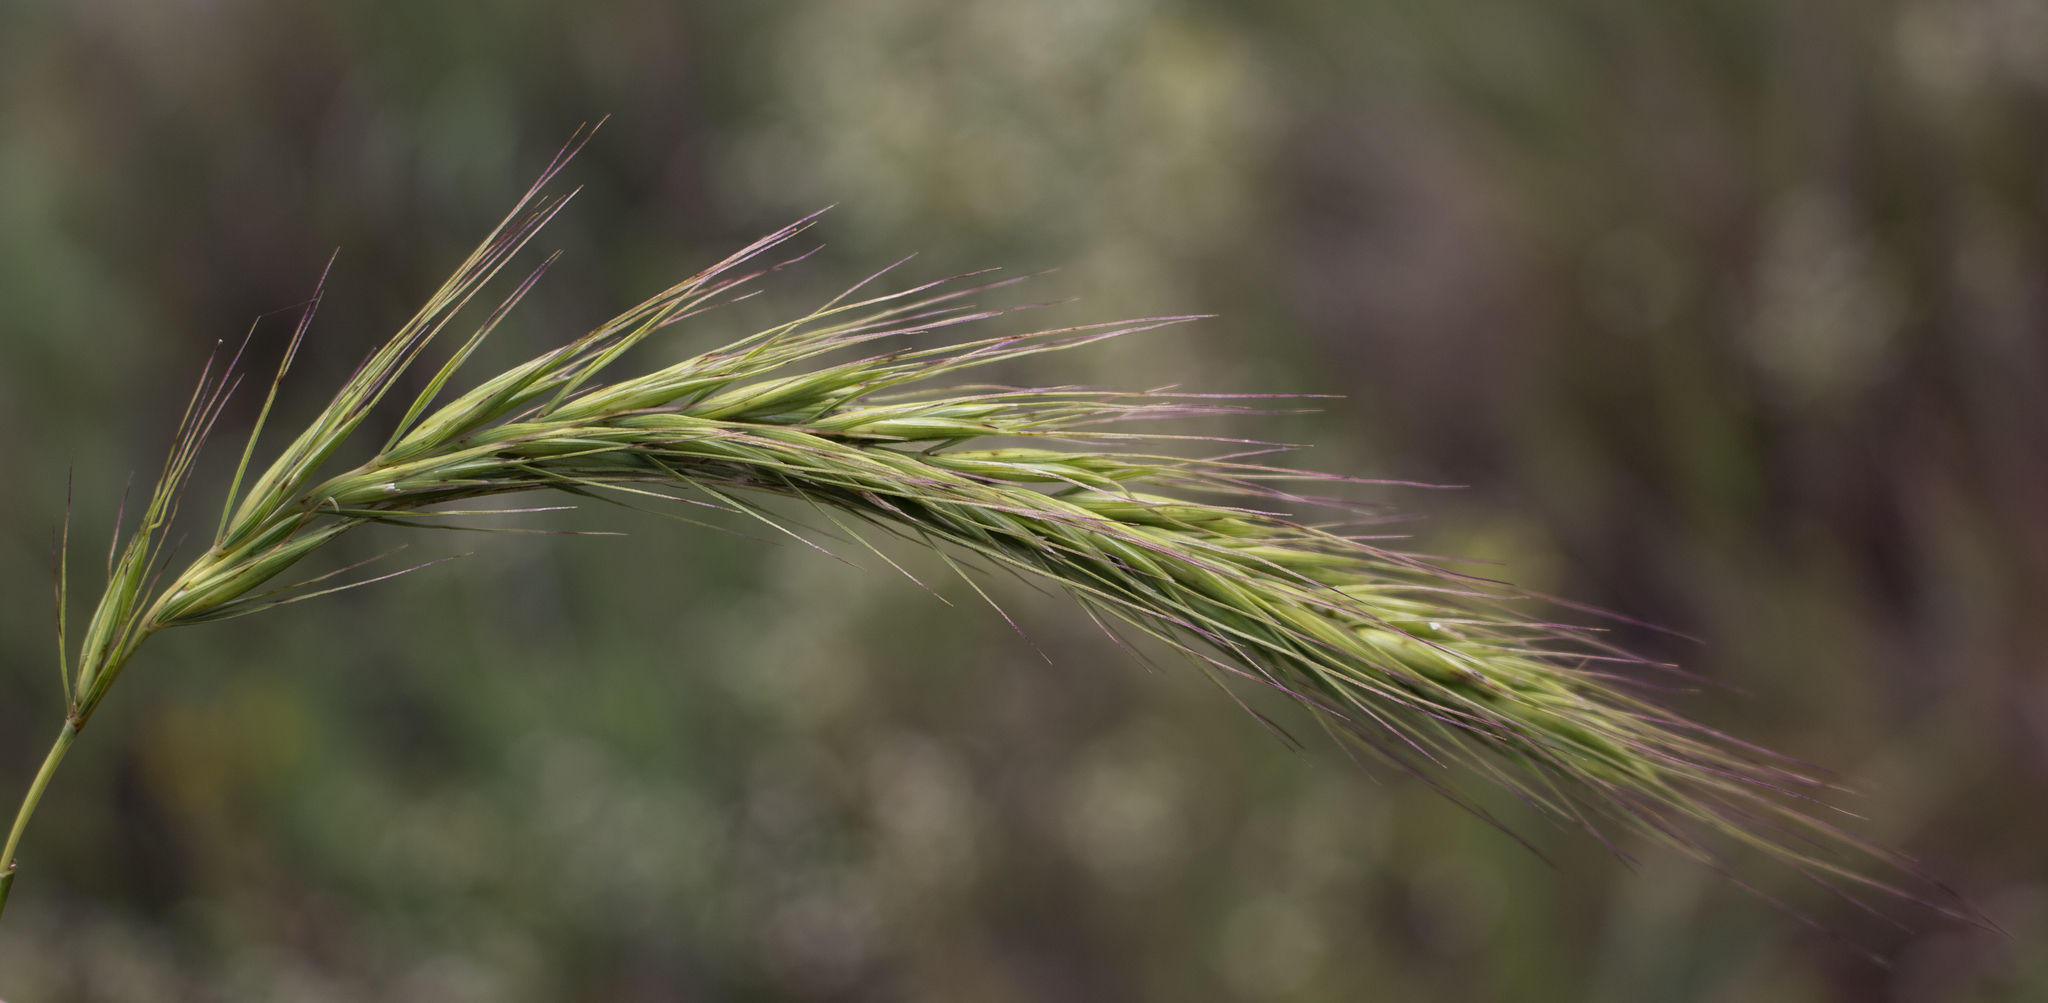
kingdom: Plantae
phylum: Tracheophyta
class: Liliopsida
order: Poales
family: Poaceae
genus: Elymus
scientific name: Elymus canadensis
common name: Canada wild rye
